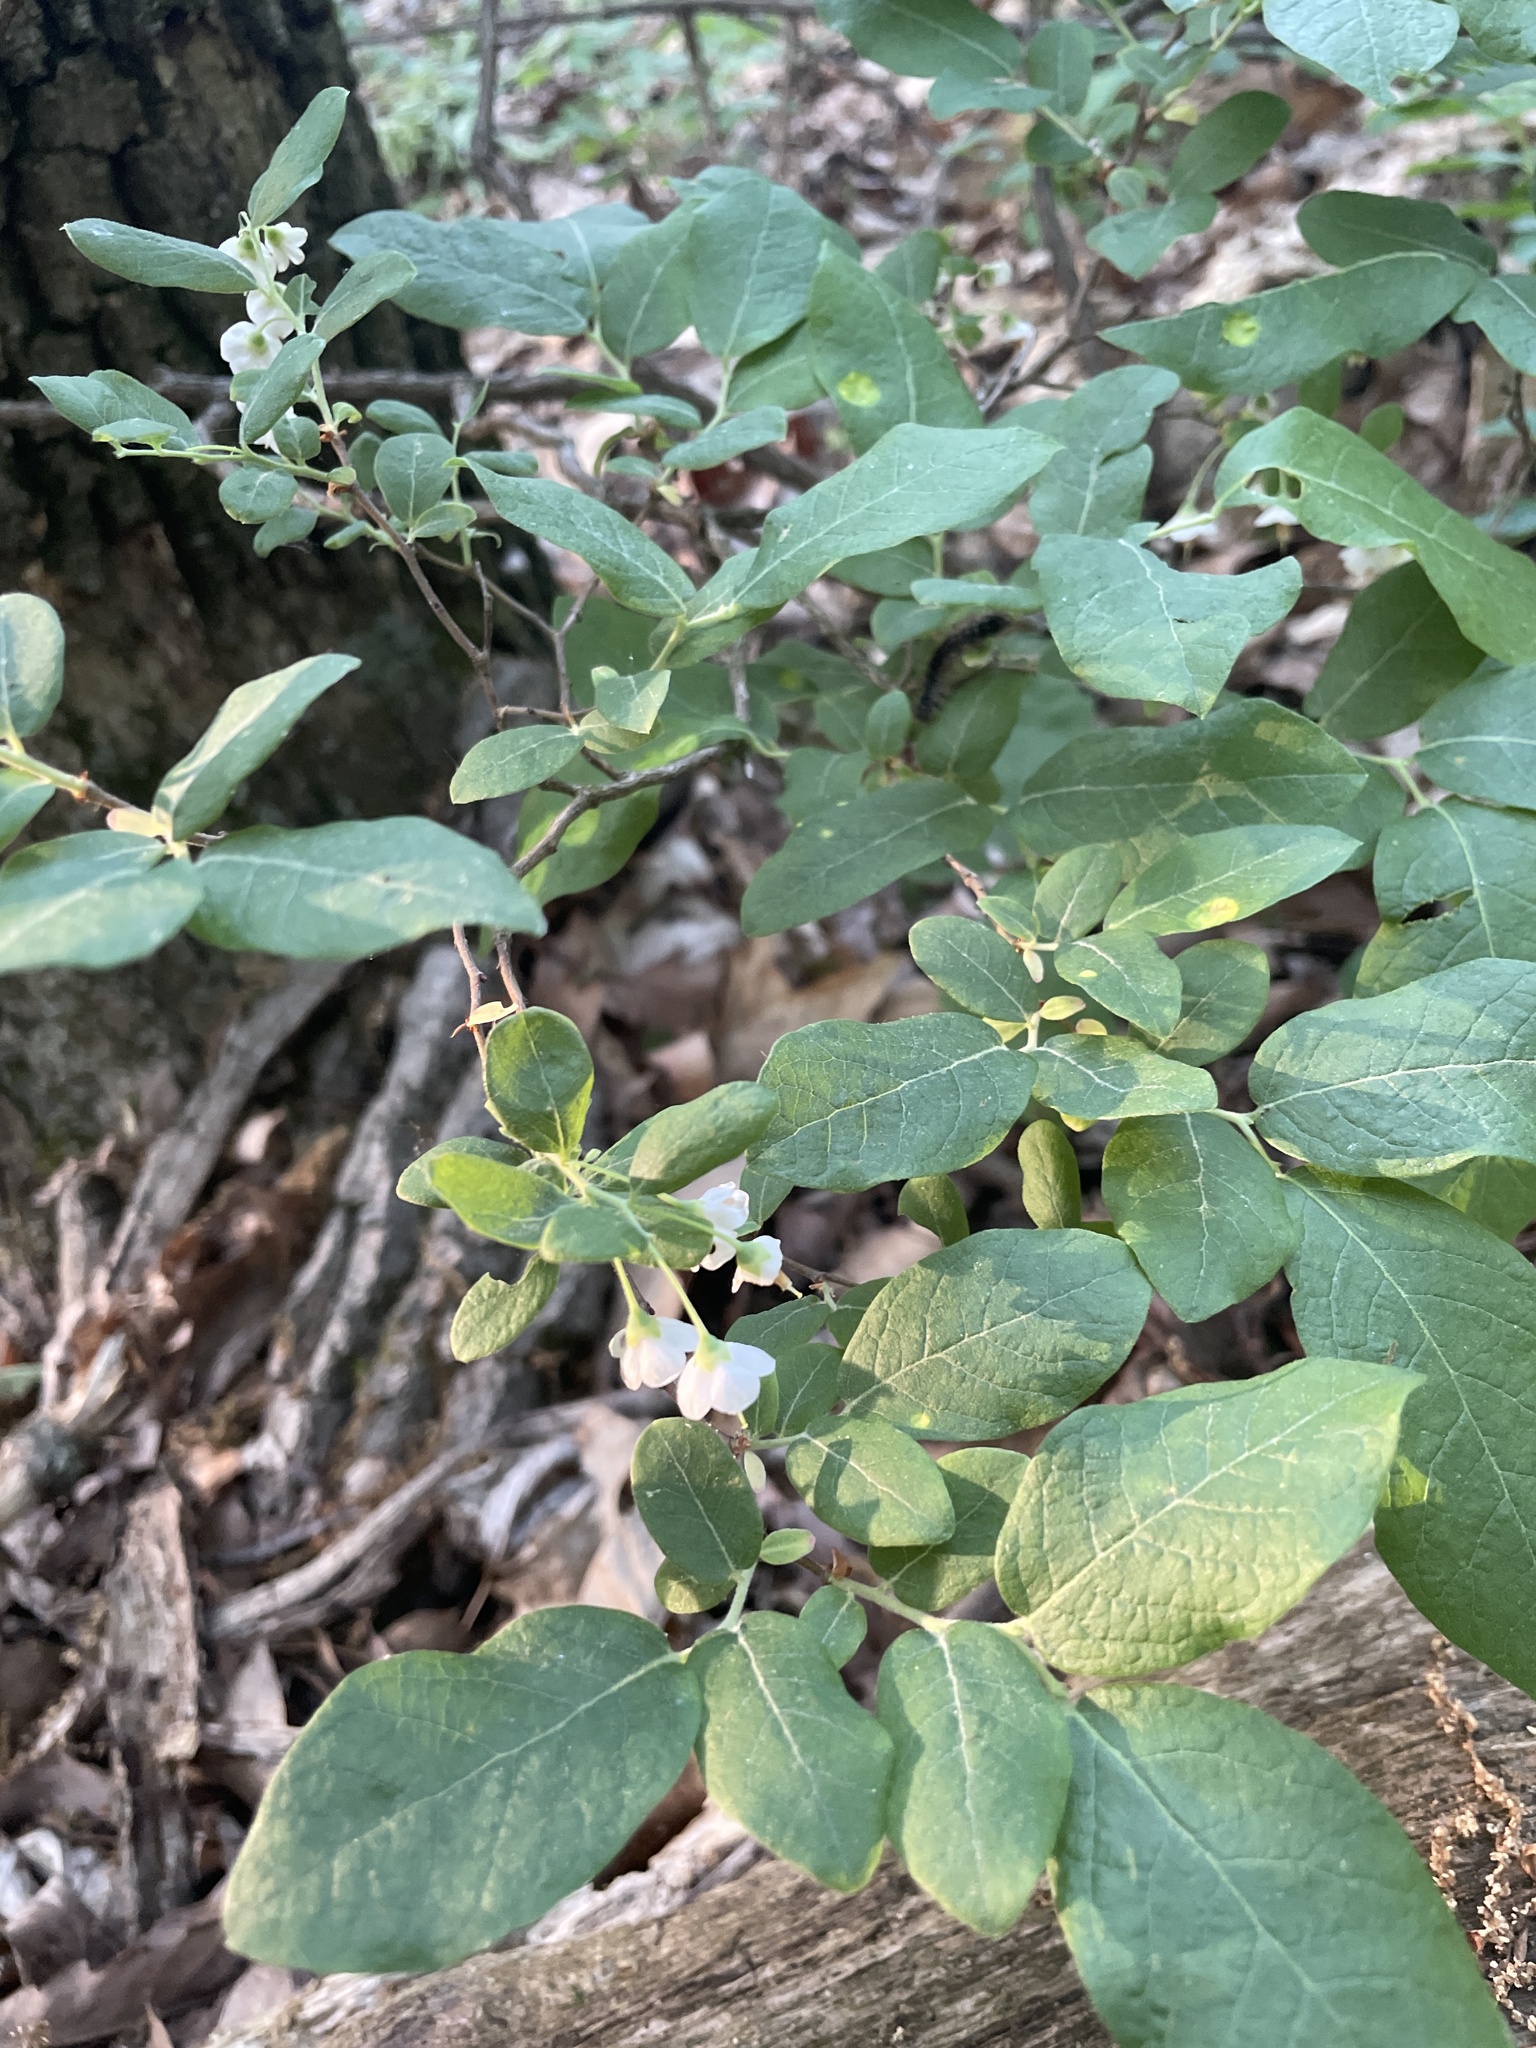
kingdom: Plantae
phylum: Tracheophyta
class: Magnoliopsida
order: Ericales
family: Ericaceae
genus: Vaccinium
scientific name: Vaccinium stamineum
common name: Deerberry
